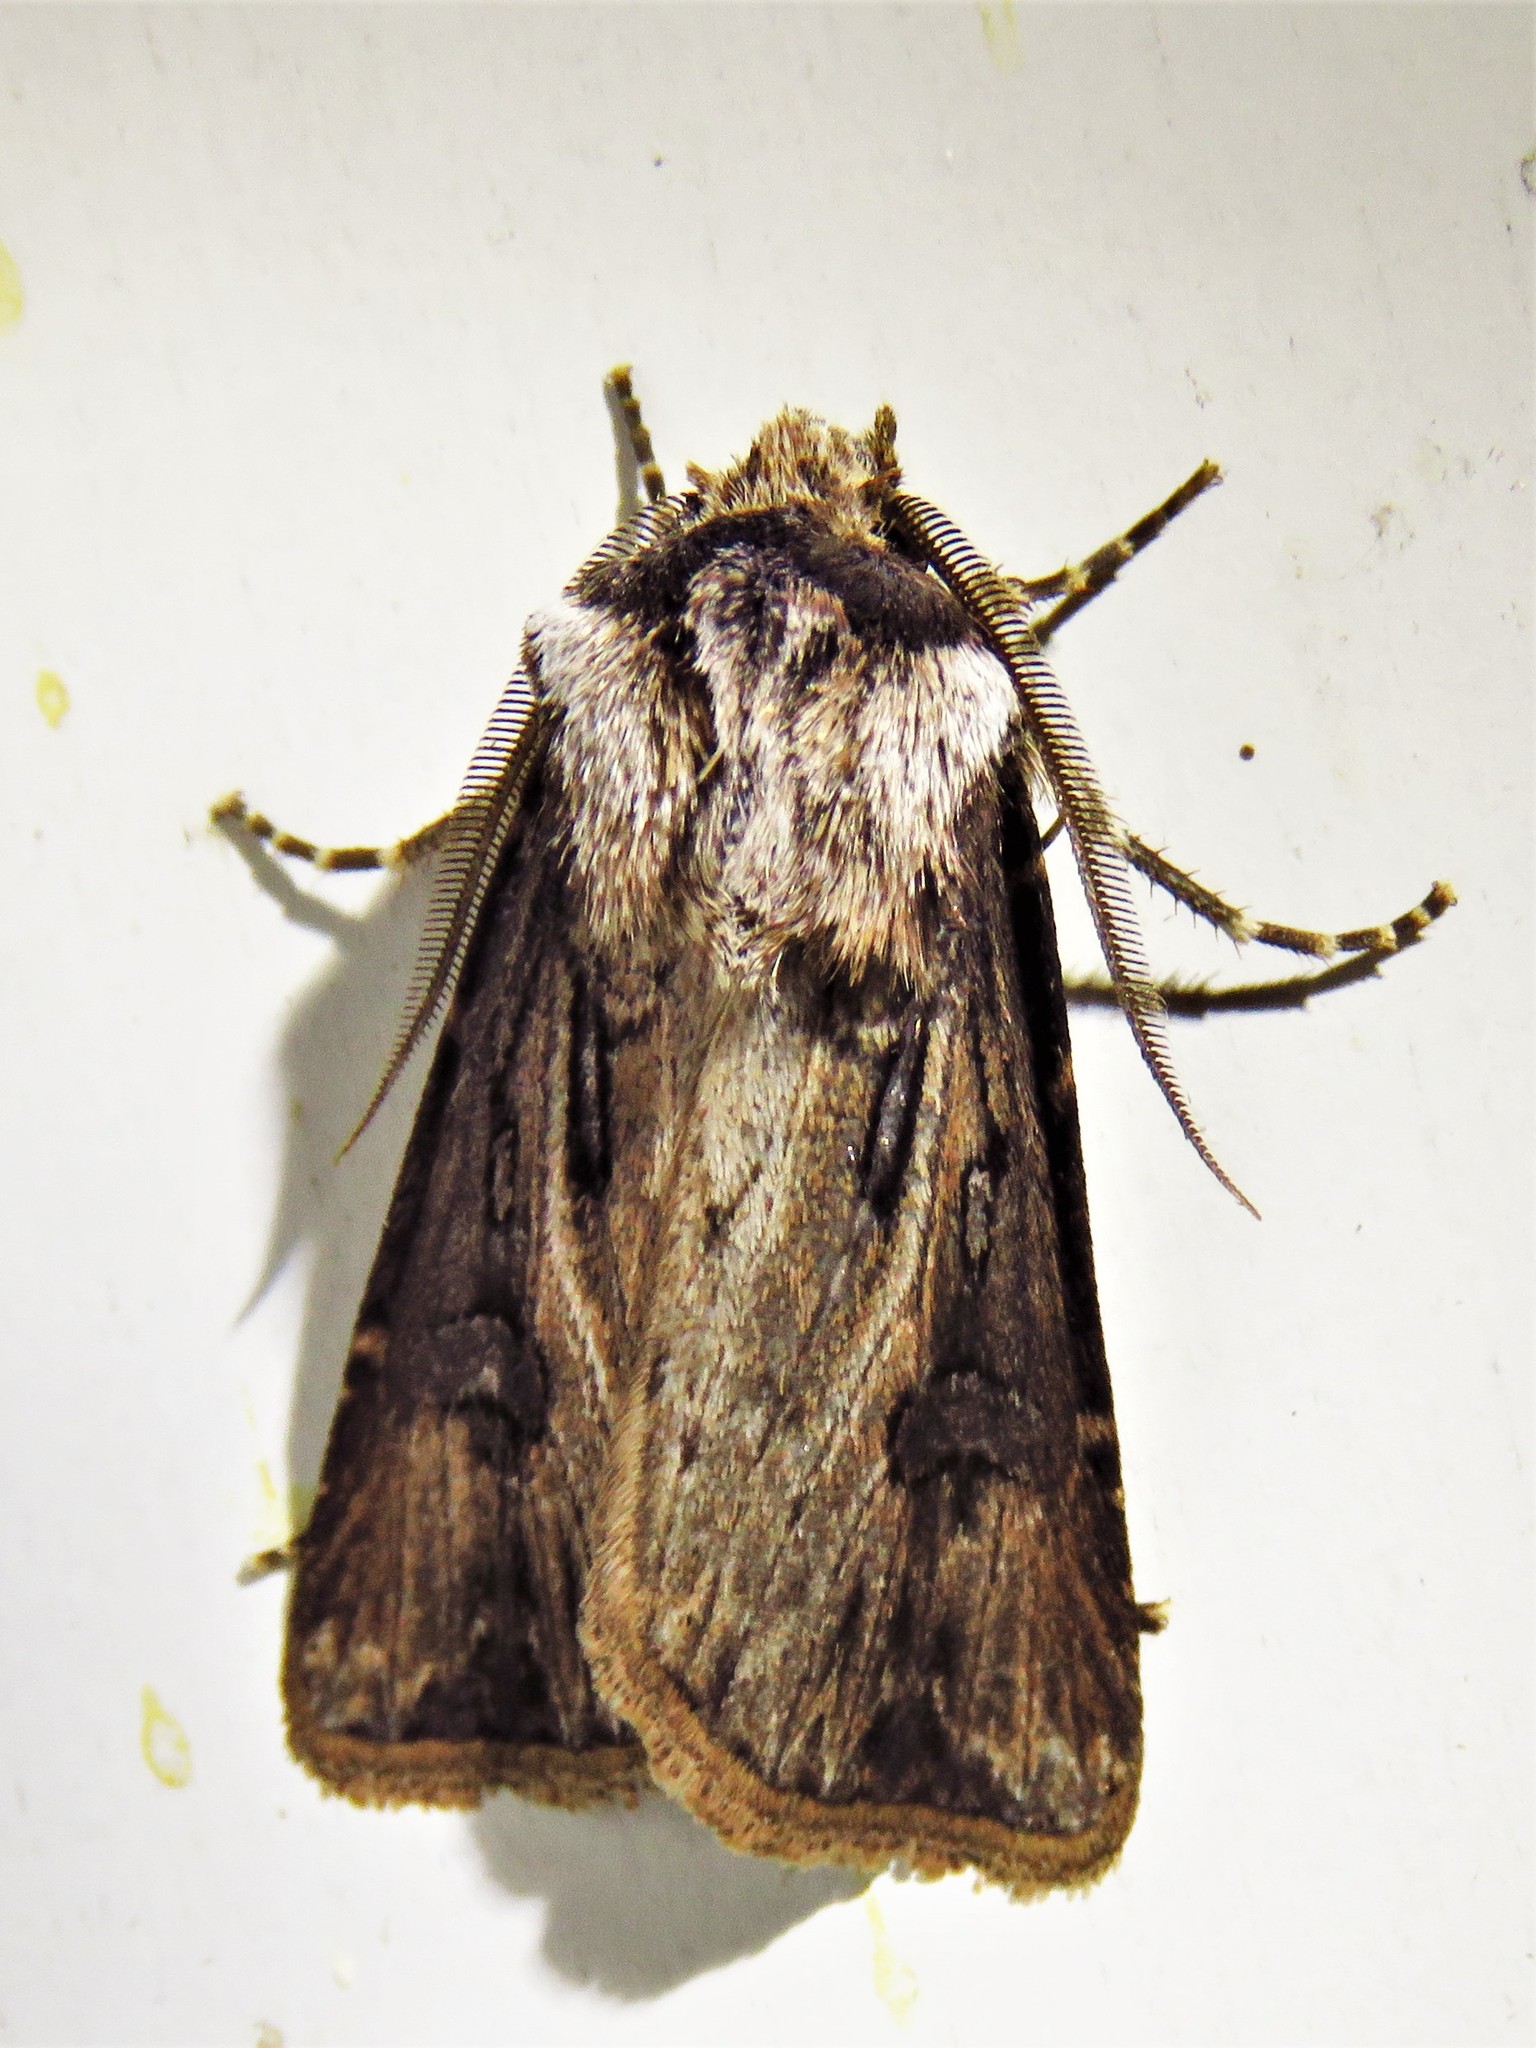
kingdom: Animalia
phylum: Arthropoda
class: Insecta
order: Lepidoptera
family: Noctuidae
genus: Agrotis
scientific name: Agrotis venerabilis
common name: Venerable dart
